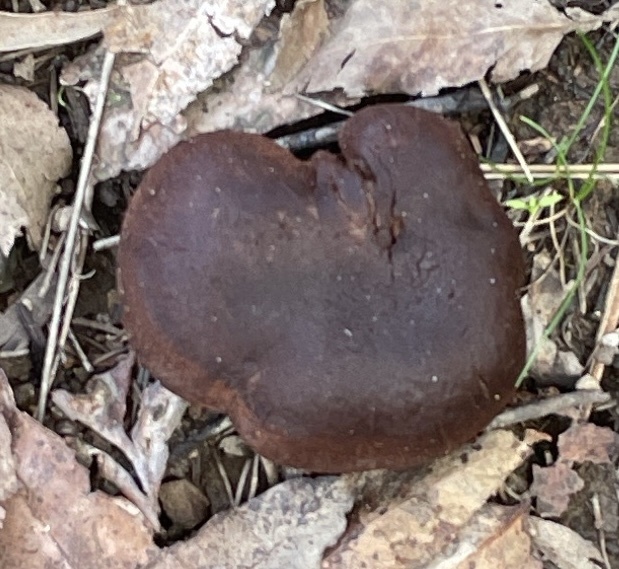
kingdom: Fungi
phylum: Basidiomycota
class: Agaricomycetes
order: Agaricales
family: Cortinariaceae
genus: Cortinarius
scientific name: Cortinarius croceus
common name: Saffron webcap
